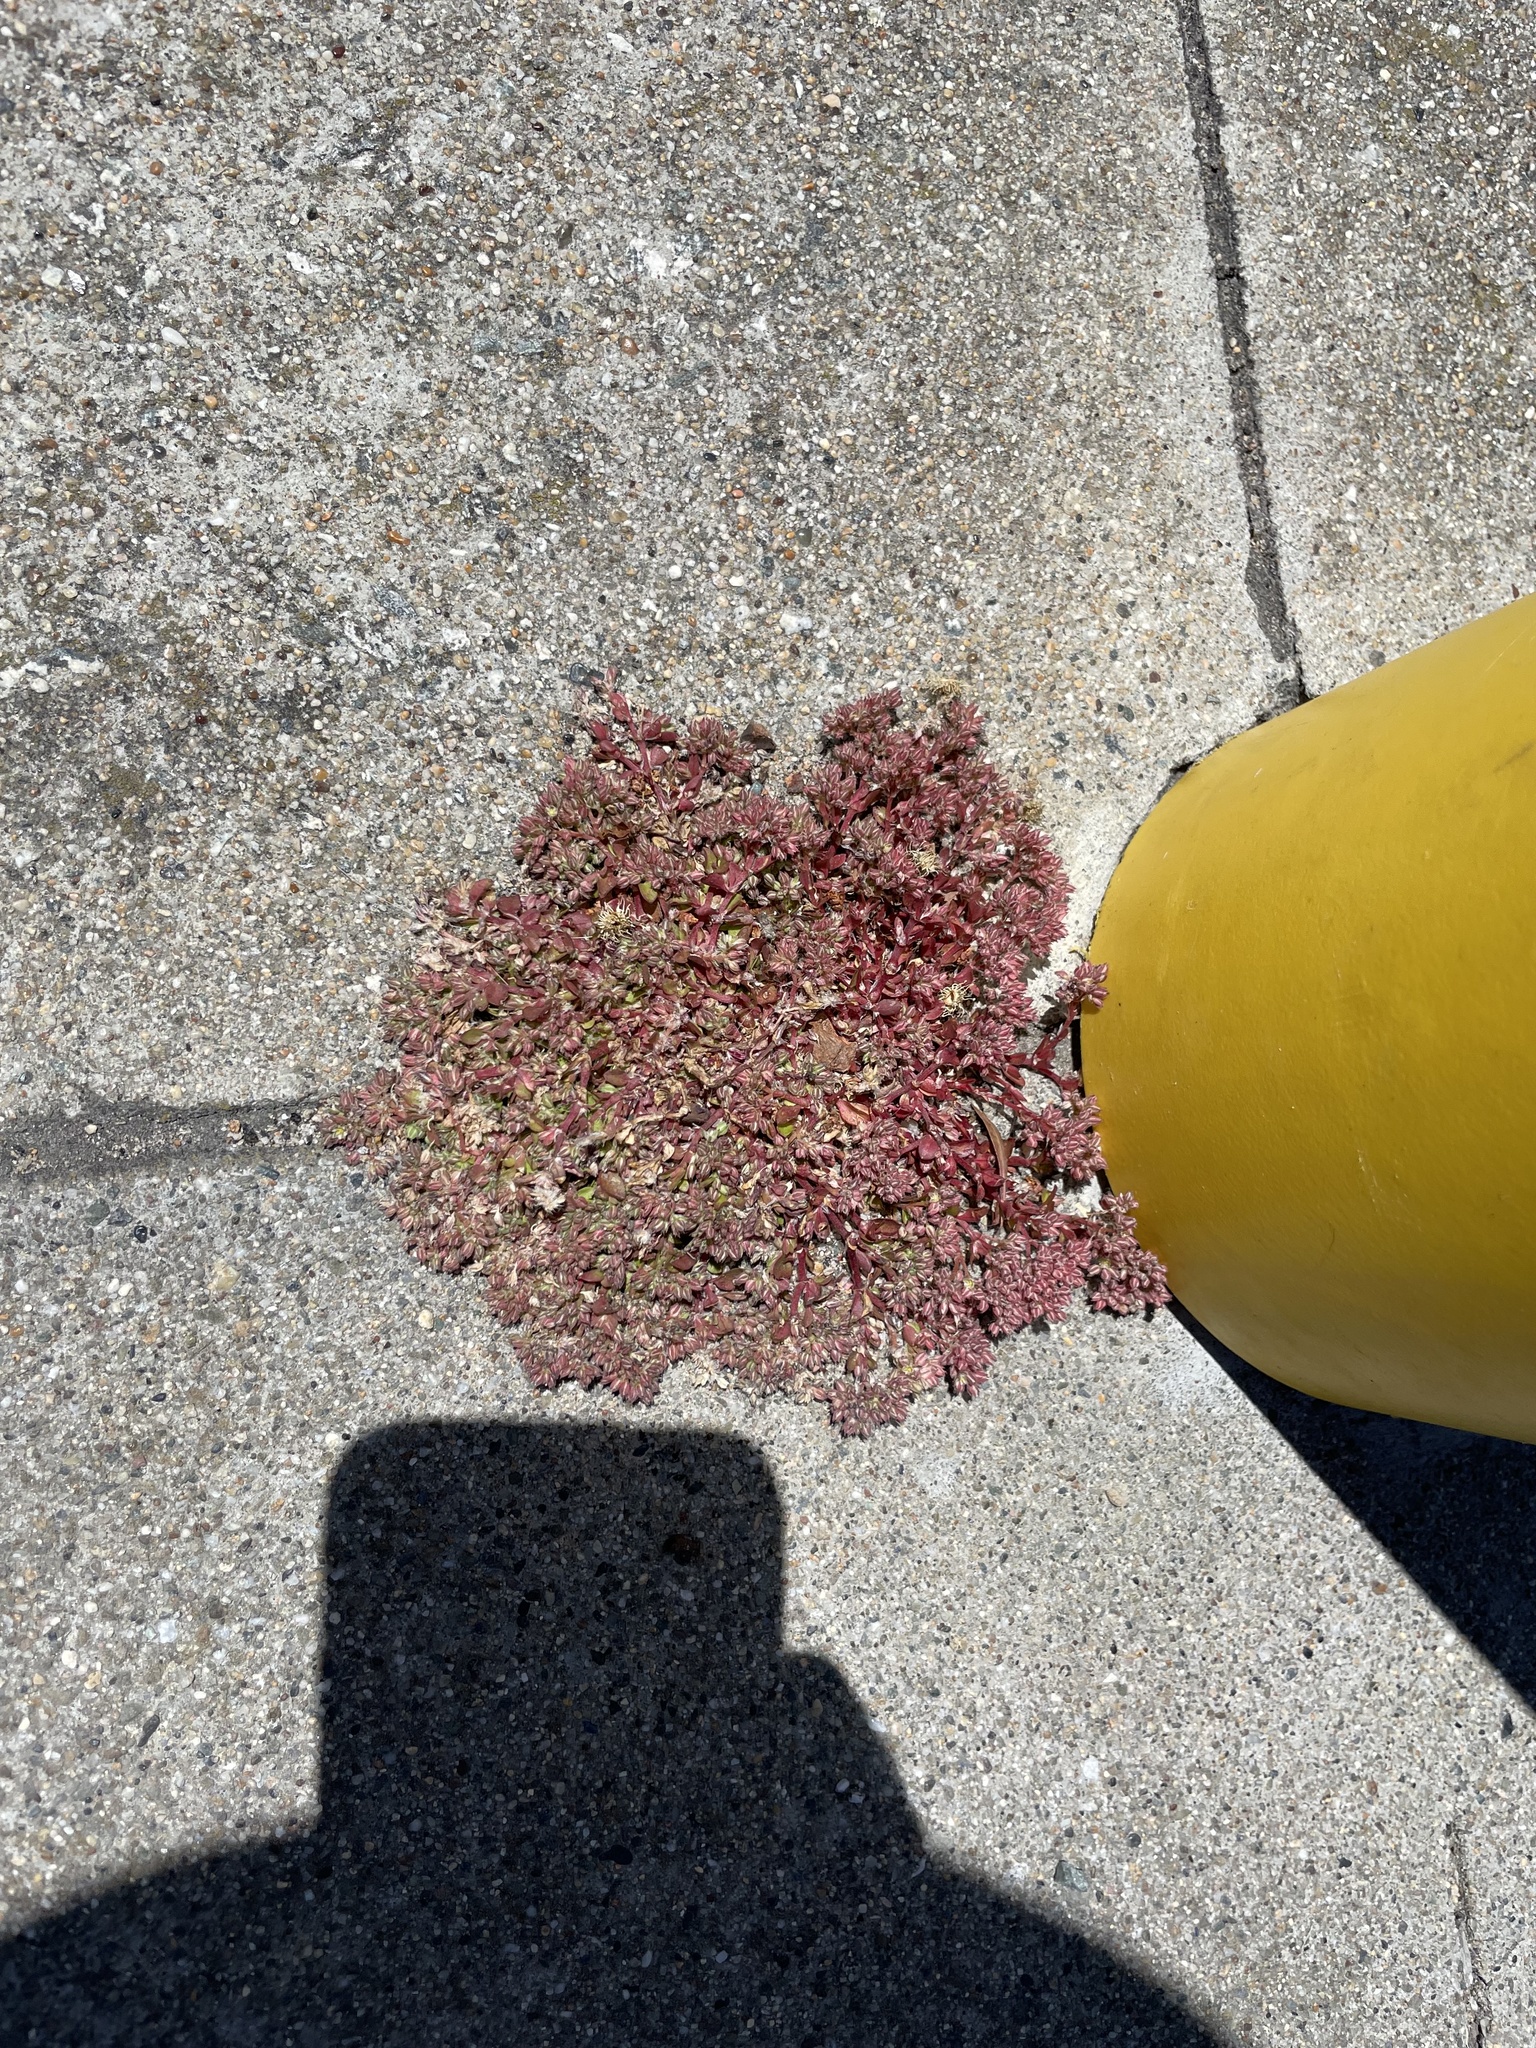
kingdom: Plantae
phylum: Tracheophyta
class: Magnoliopsida
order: Caryophyllales
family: Caryophyllaceae
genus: Polycarpon
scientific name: Polycarpon tetraphyllum
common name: Four-leaved all-seed
